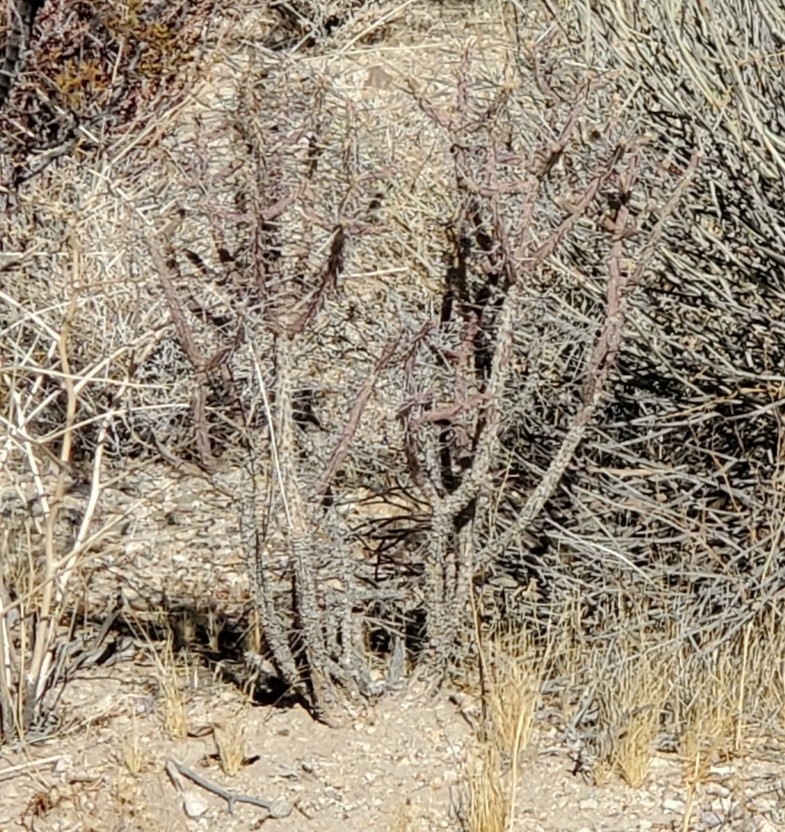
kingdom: Plantae
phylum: Tracheophyta
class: Magnoliopsida
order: Caryophyllales
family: Cactaceae
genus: Cylindropuntia
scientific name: Cylindropuntia ramosissima
